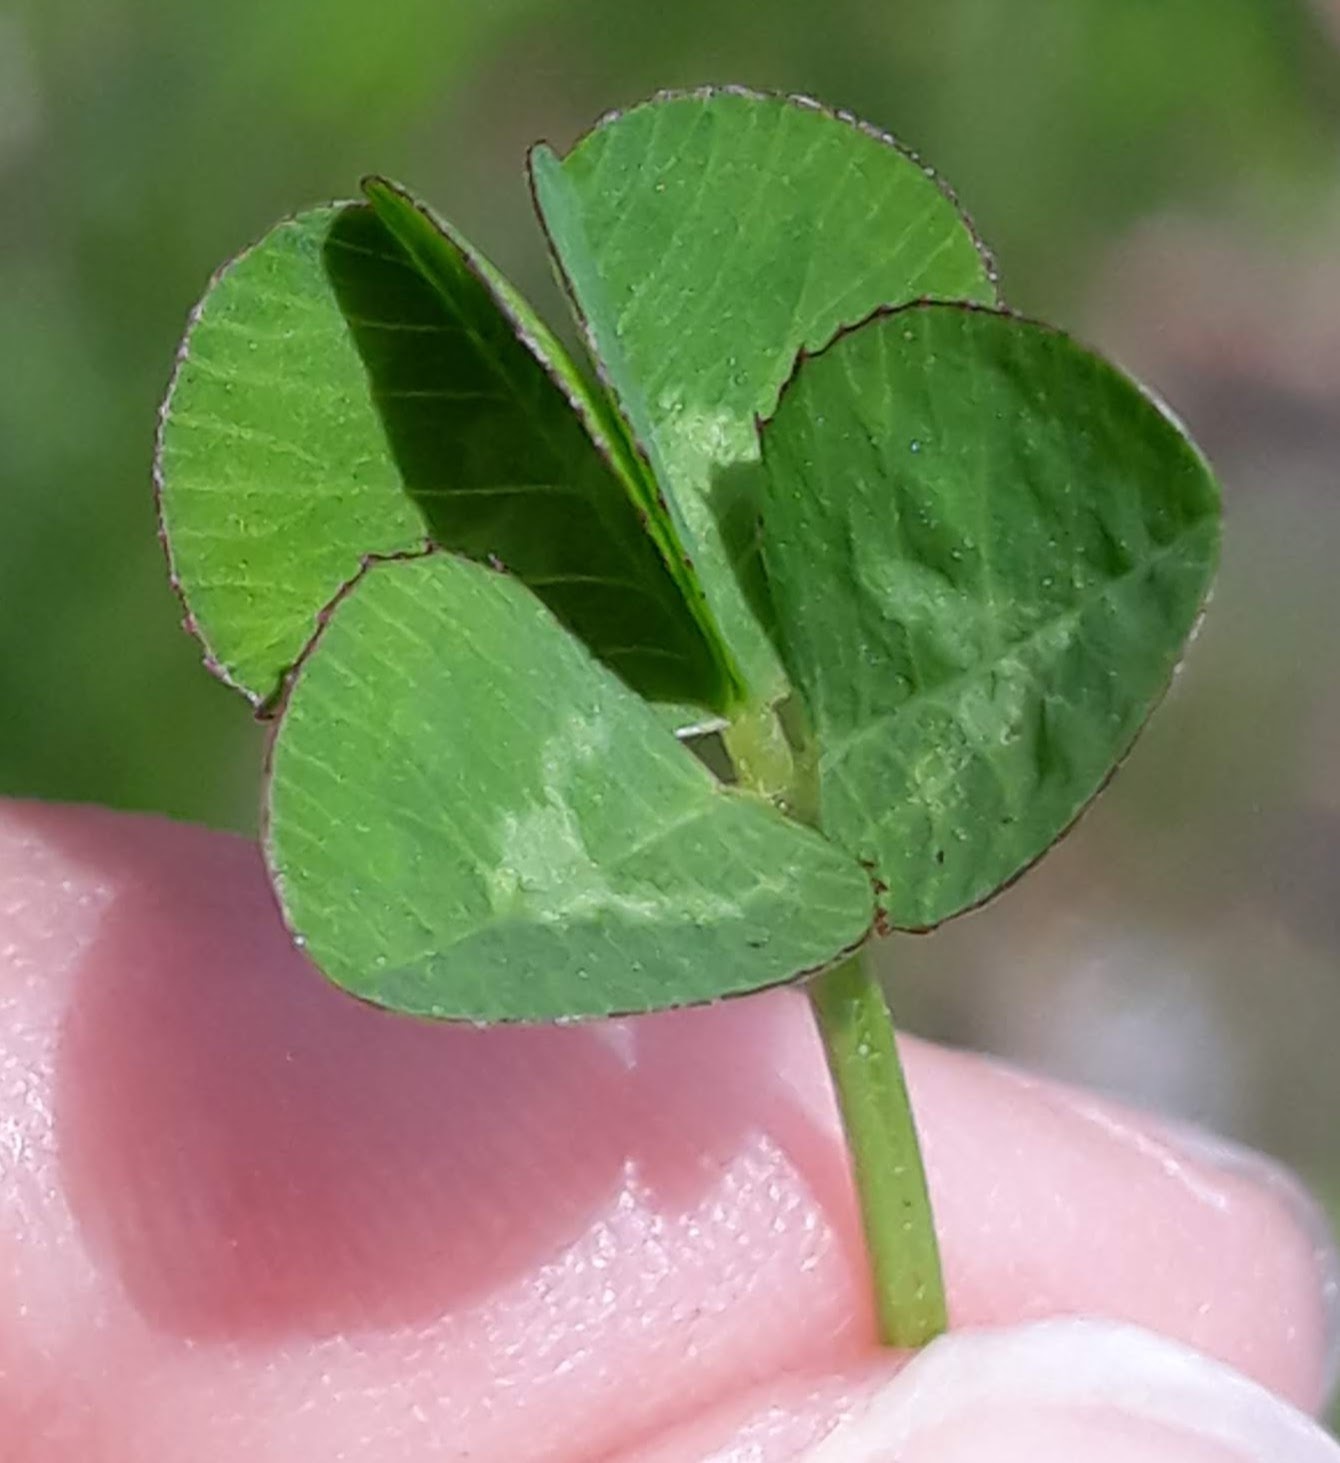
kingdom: Plantae
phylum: Tracheophyta
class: Magnoliopsida
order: Fabales
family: Fabaceae
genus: Trifolium
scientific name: Trifolium repens
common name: White clover
